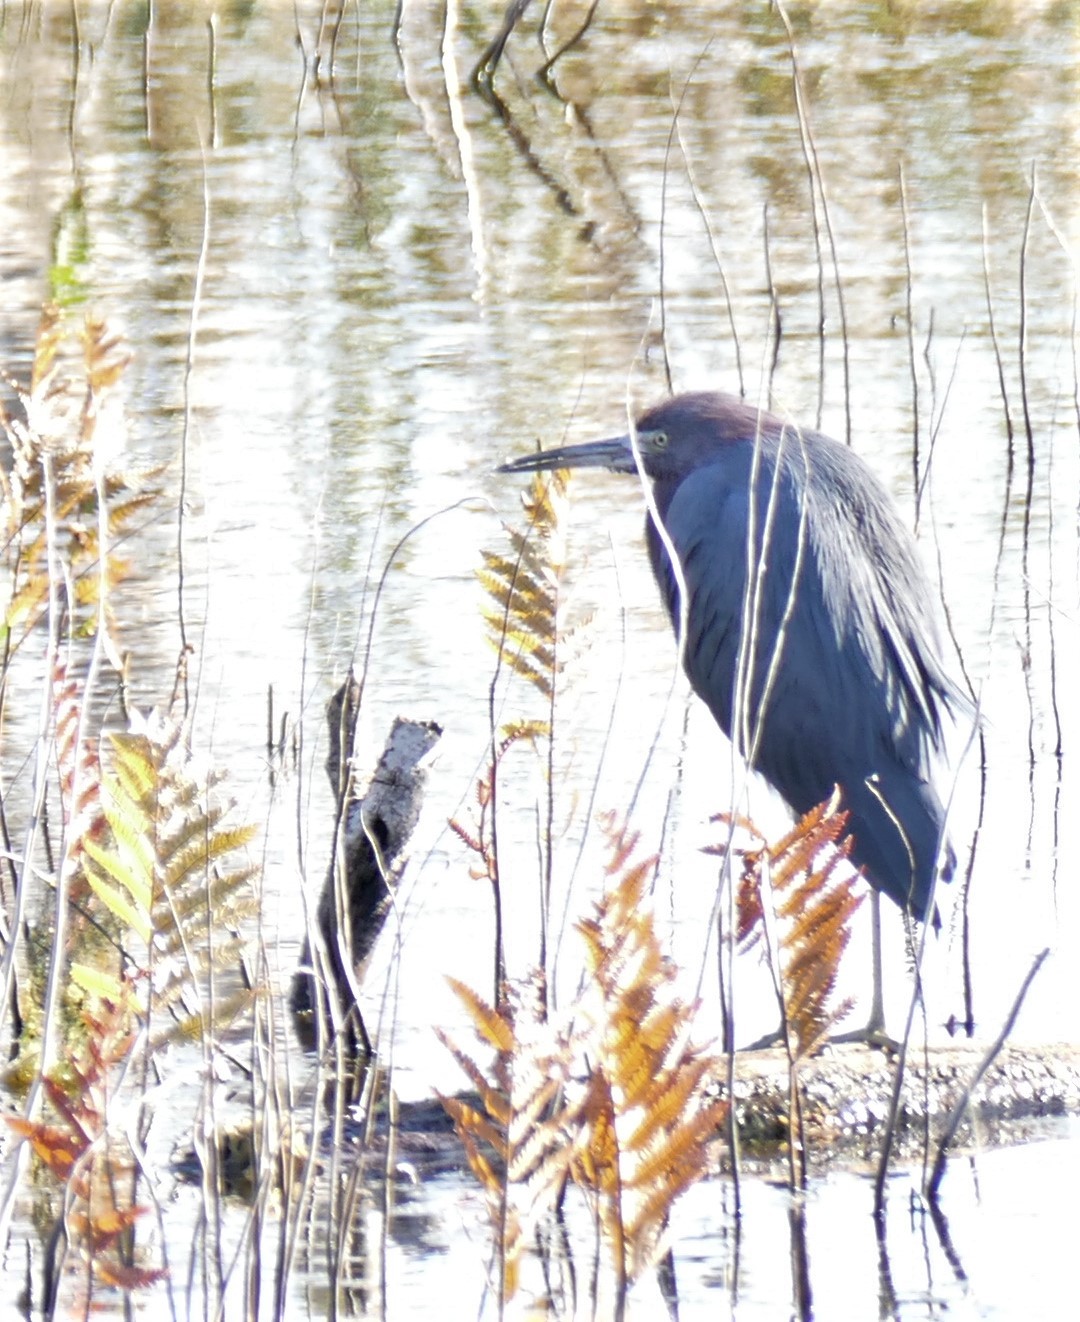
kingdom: Animalia
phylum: Chordata
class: Aves
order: Pelecaniformes
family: Ardeidae
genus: Egretta
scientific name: Egretta caerulea
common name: Little blue heron
